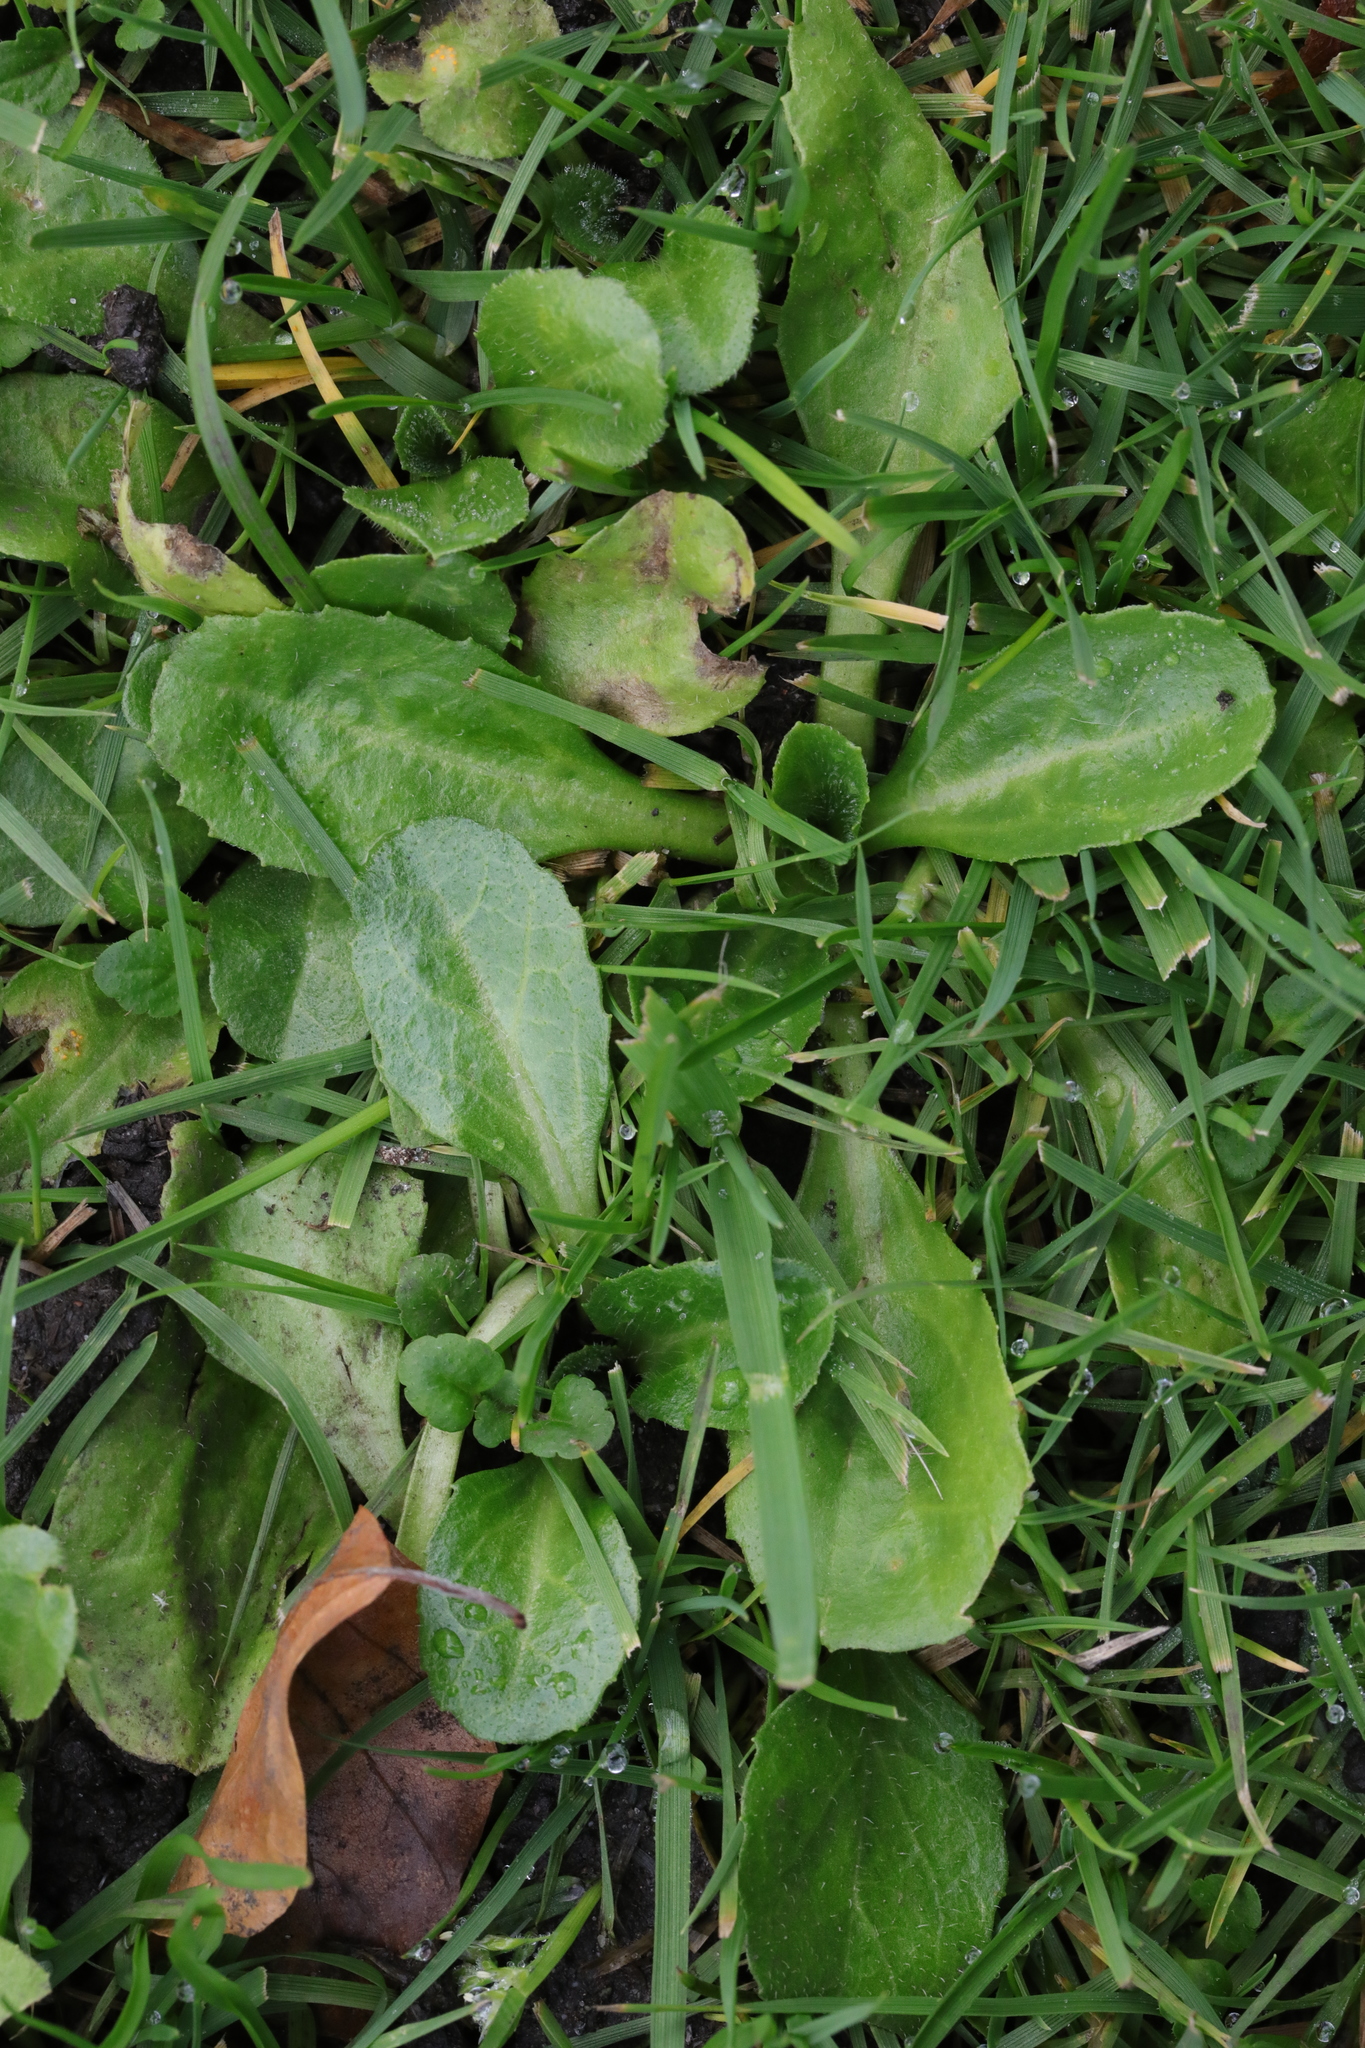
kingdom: Plantae
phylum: Tracheophyta
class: Magnoliopsida
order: Asterales
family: Asteraceae
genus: Bellis
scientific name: Bellis perennis
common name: Lawndaisy
